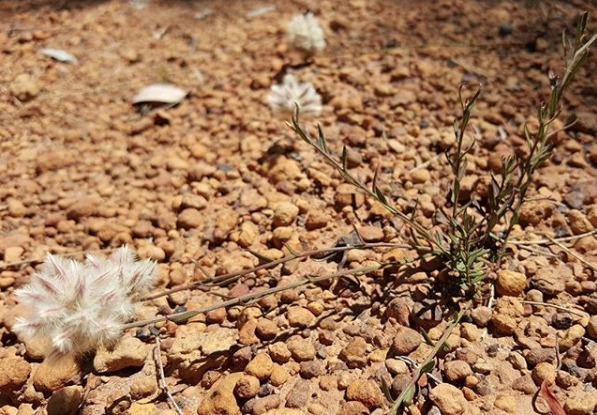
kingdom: Plantae
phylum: Tracheophyta
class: Magnoliopsida
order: Caryophyllales
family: Amaranthaceae
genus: Ptilotus
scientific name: Ptilotus esquamatus
